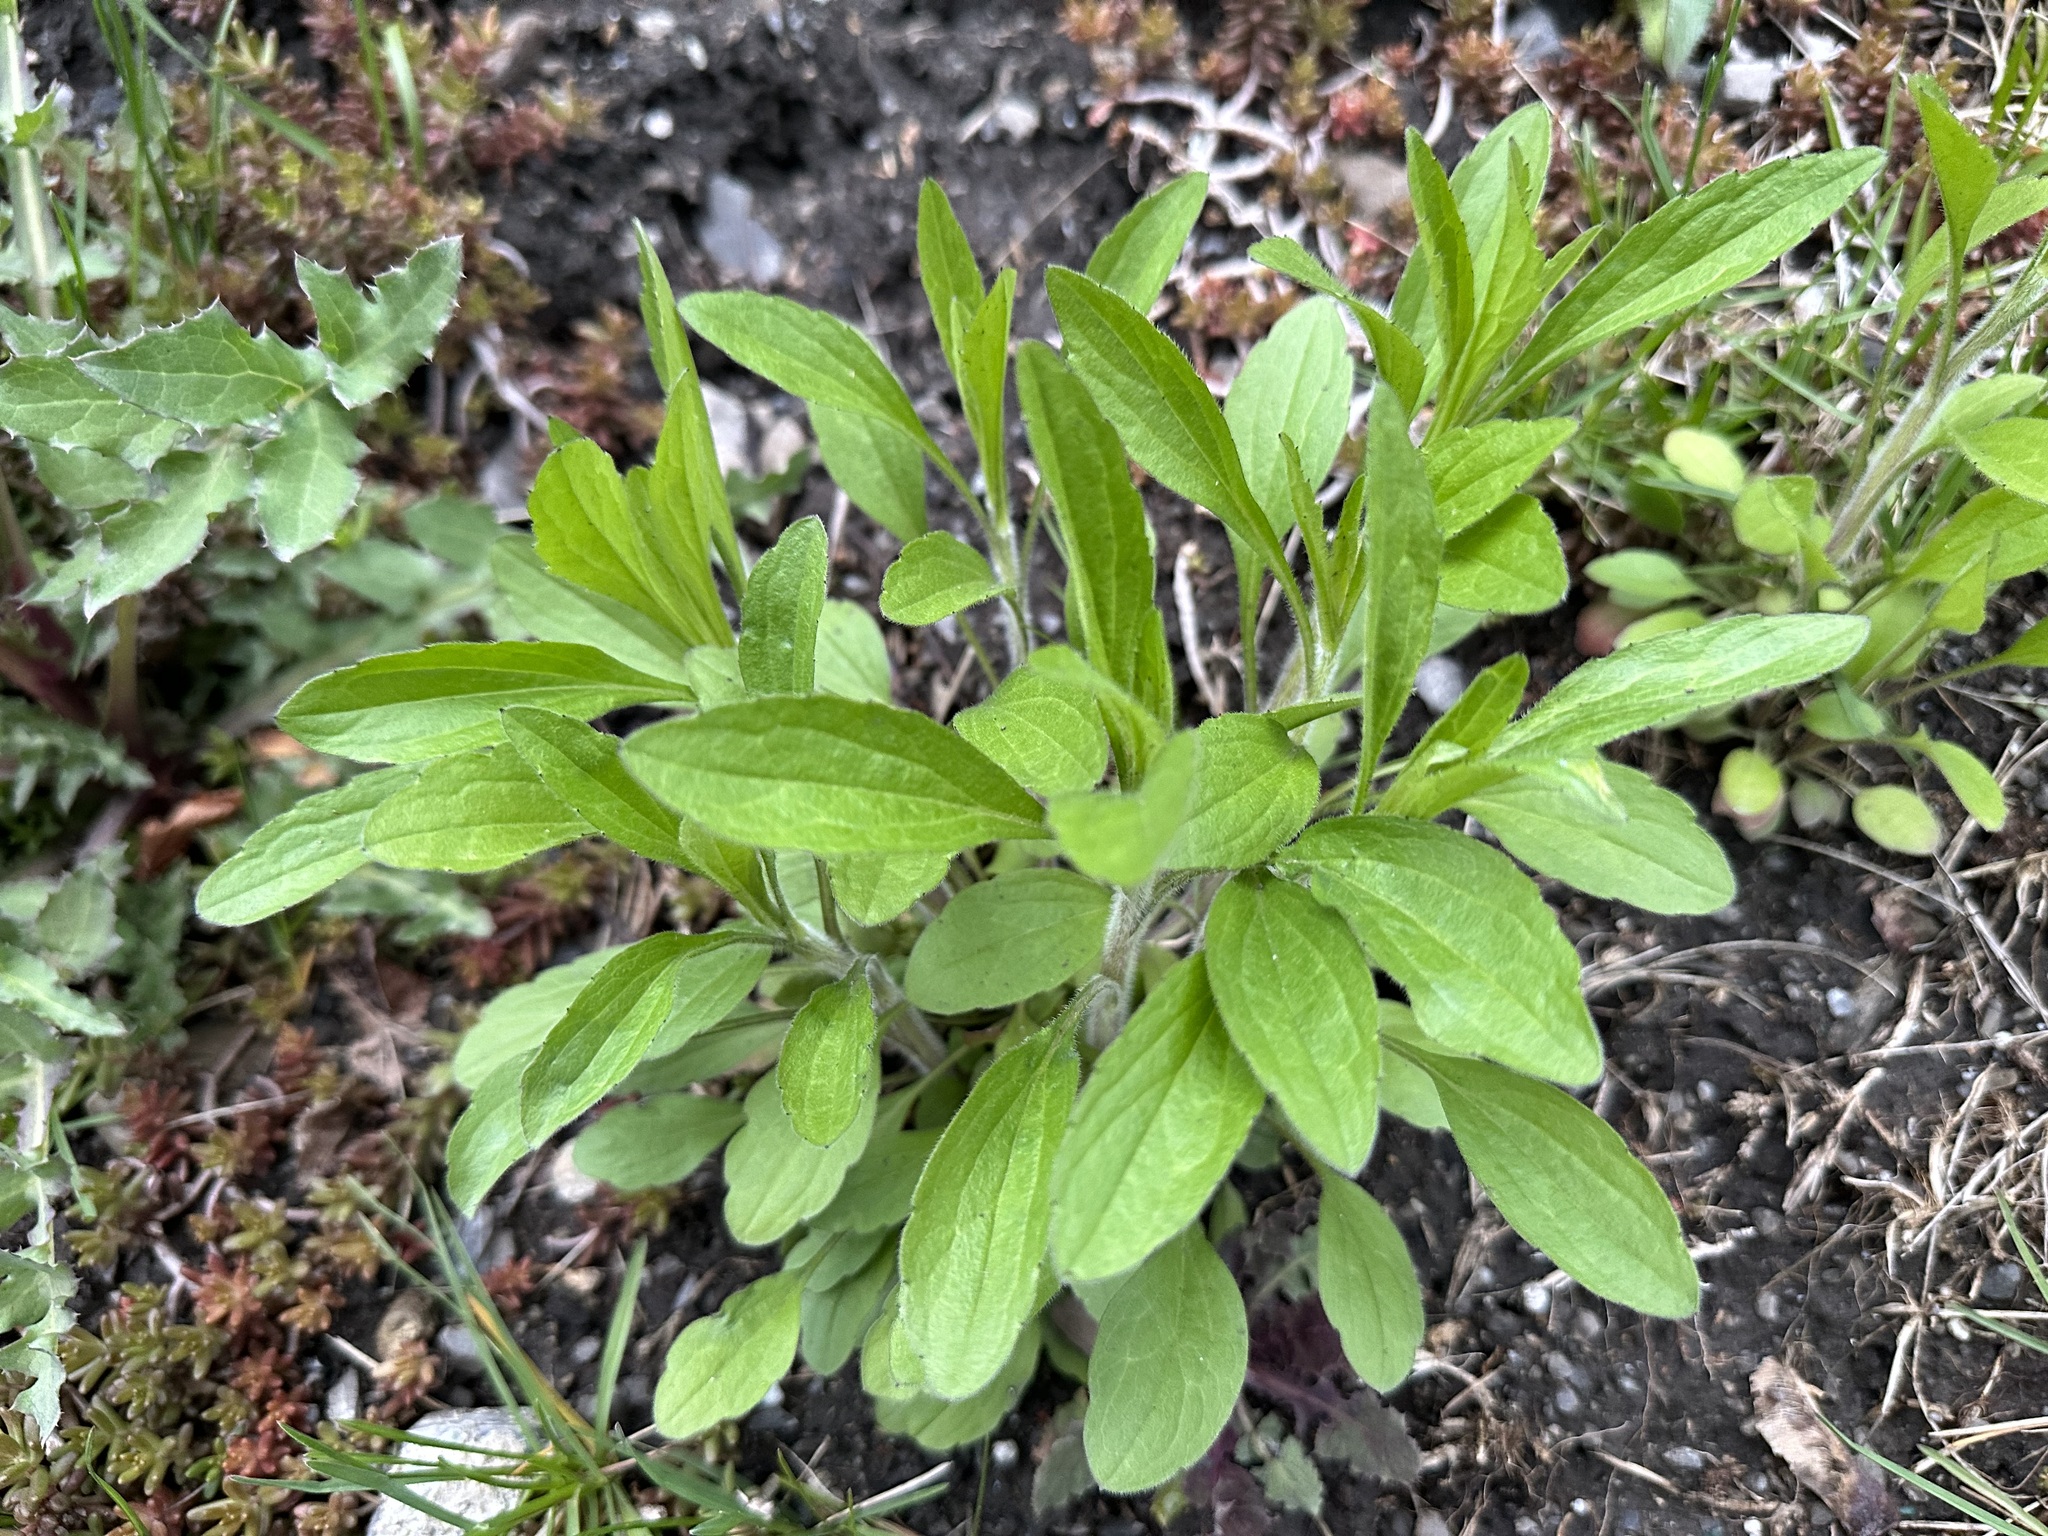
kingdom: Plantae
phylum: Tracheophyta
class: Magnoliopsida
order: Asterales
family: Asteraceae
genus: Erigeron
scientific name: Erigeron annuus
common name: Tall fleabane
